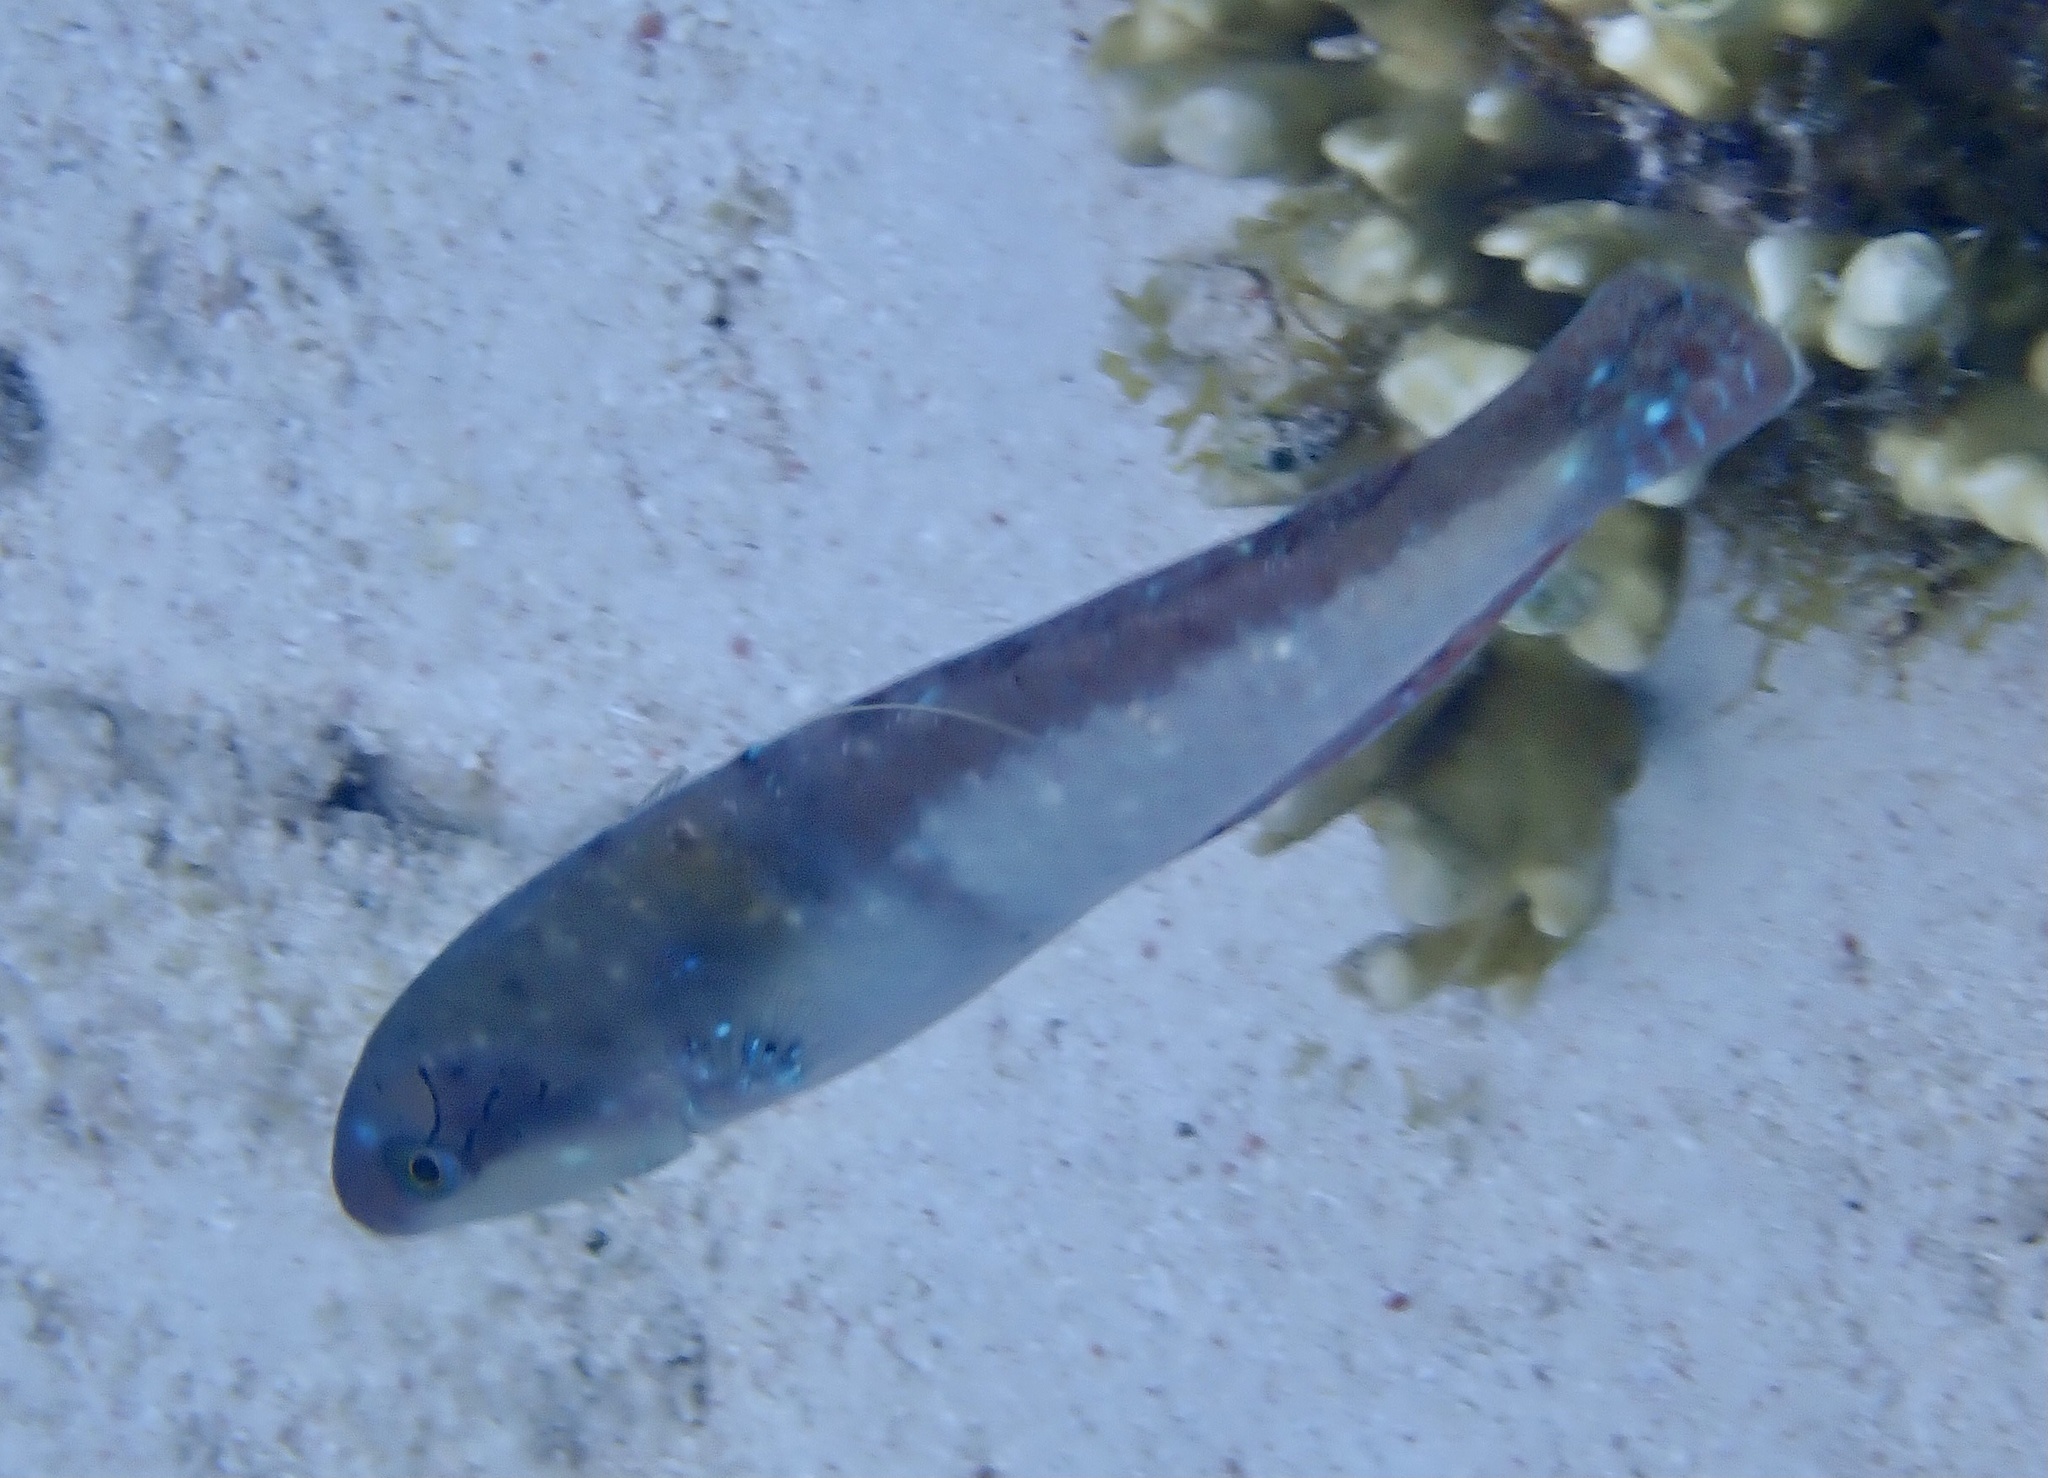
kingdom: Animalia
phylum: Chordata
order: Perciformes
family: Labridae
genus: Halichoeres
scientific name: Halichoeres garnoti
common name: Yellowhead wrasse
